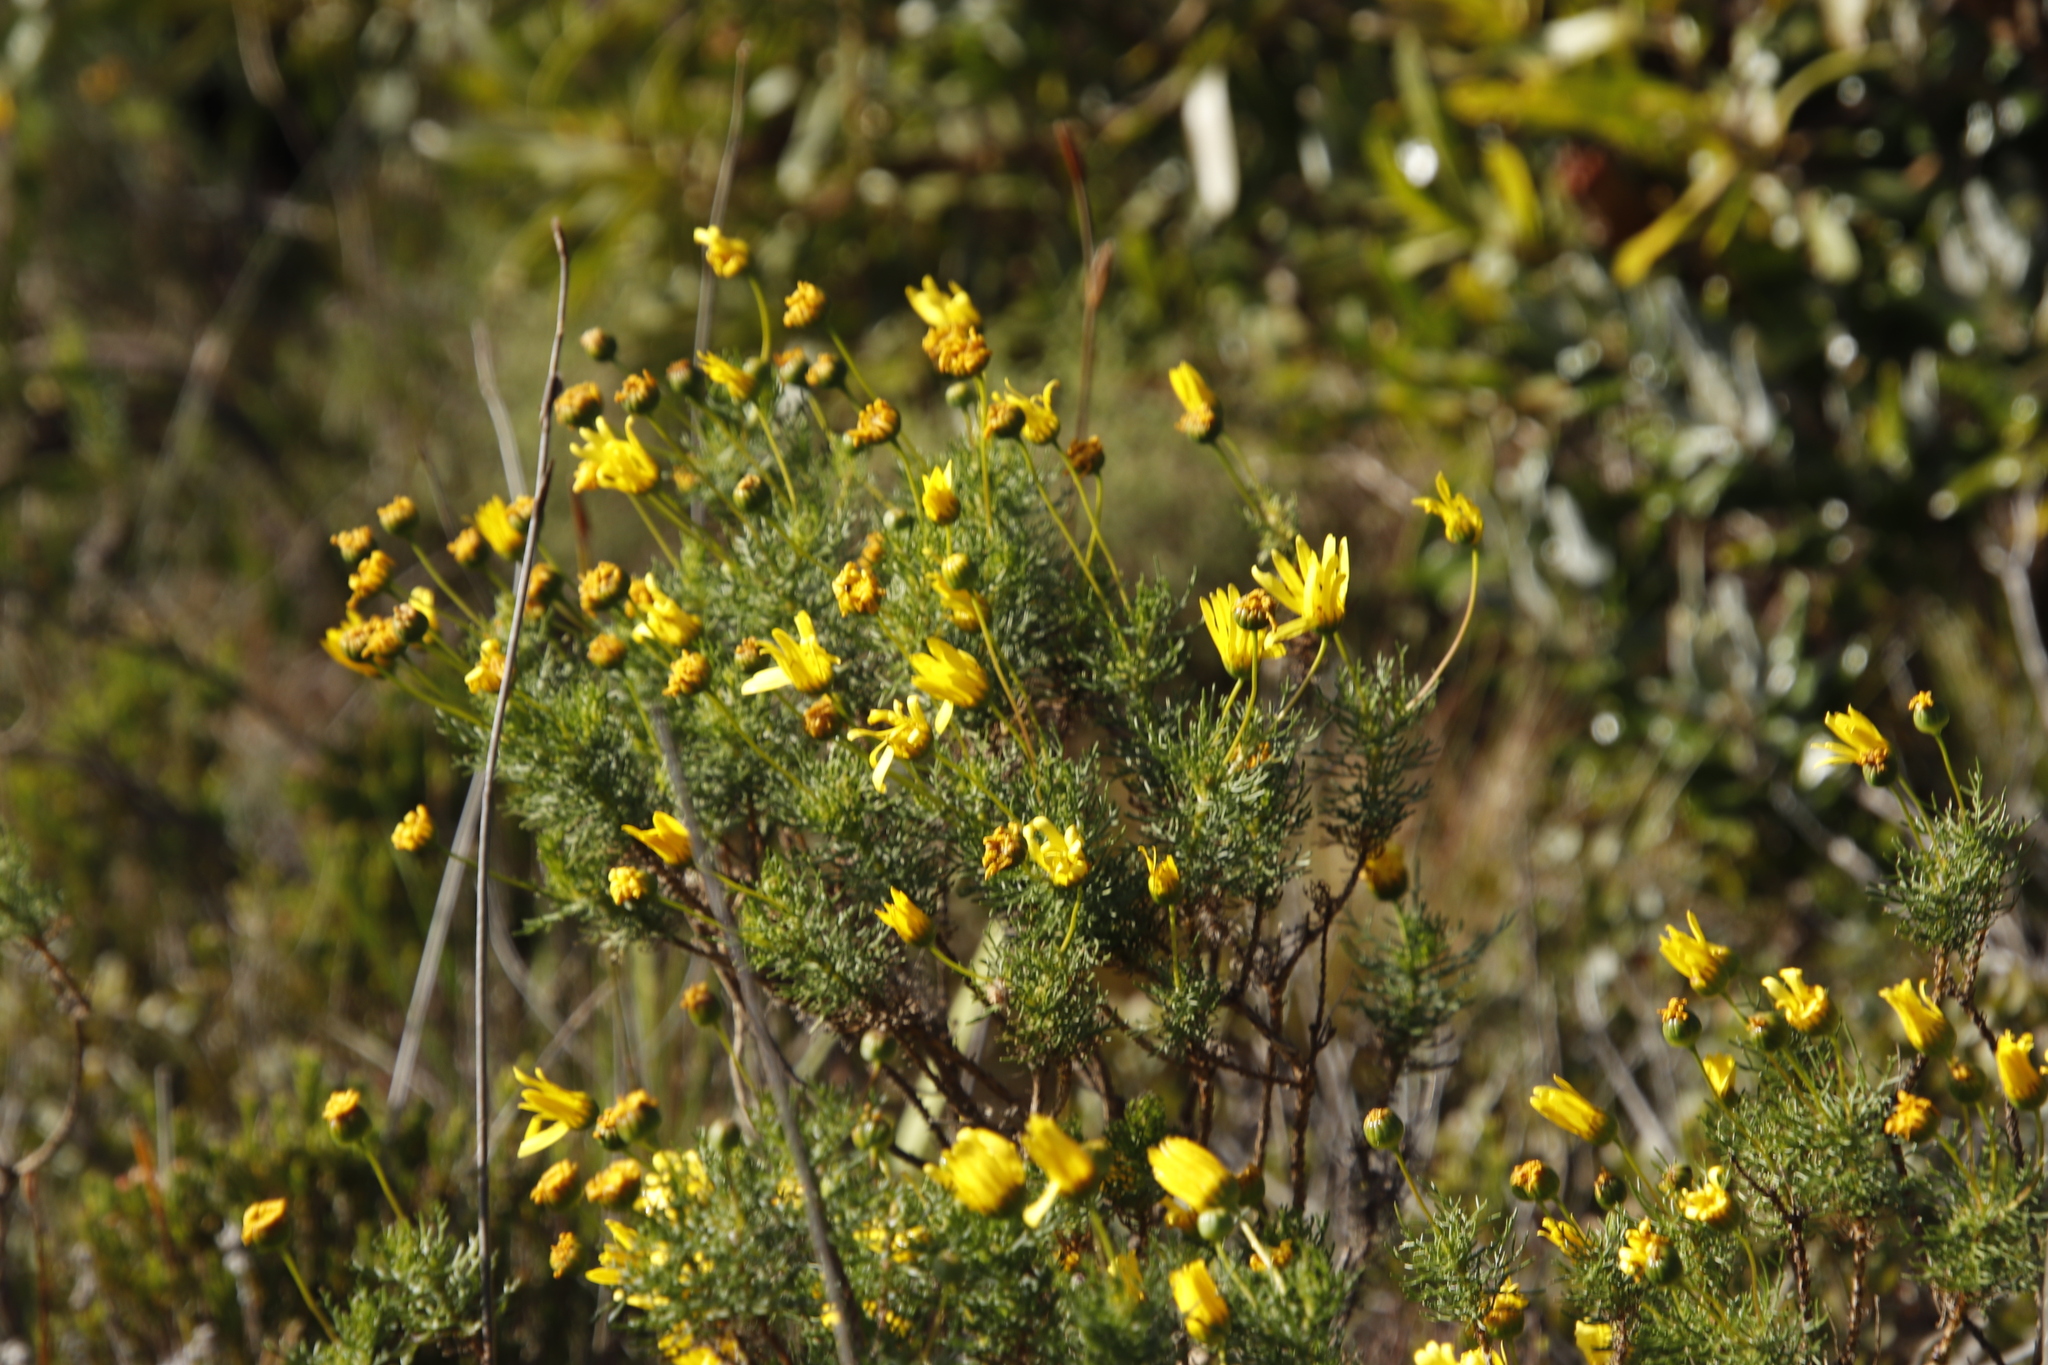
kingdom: Plantae
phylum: Tracheophyta
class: Magnoliopsida
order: Asterales
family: Asteraceae
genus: Euryops
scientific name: Euryops abrotanifolius
